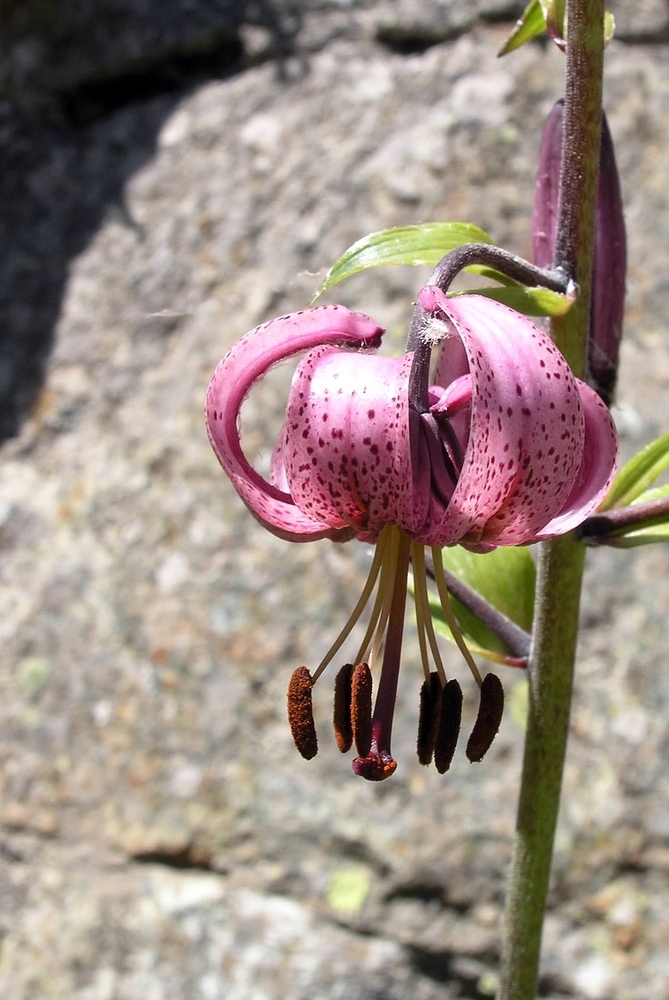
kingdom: Plantae
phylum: Tracheophyta
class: Liliopsida
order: Liliales
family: Liliaceae
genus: Lilium
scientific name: Lilium martagon
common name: Martagon lily
